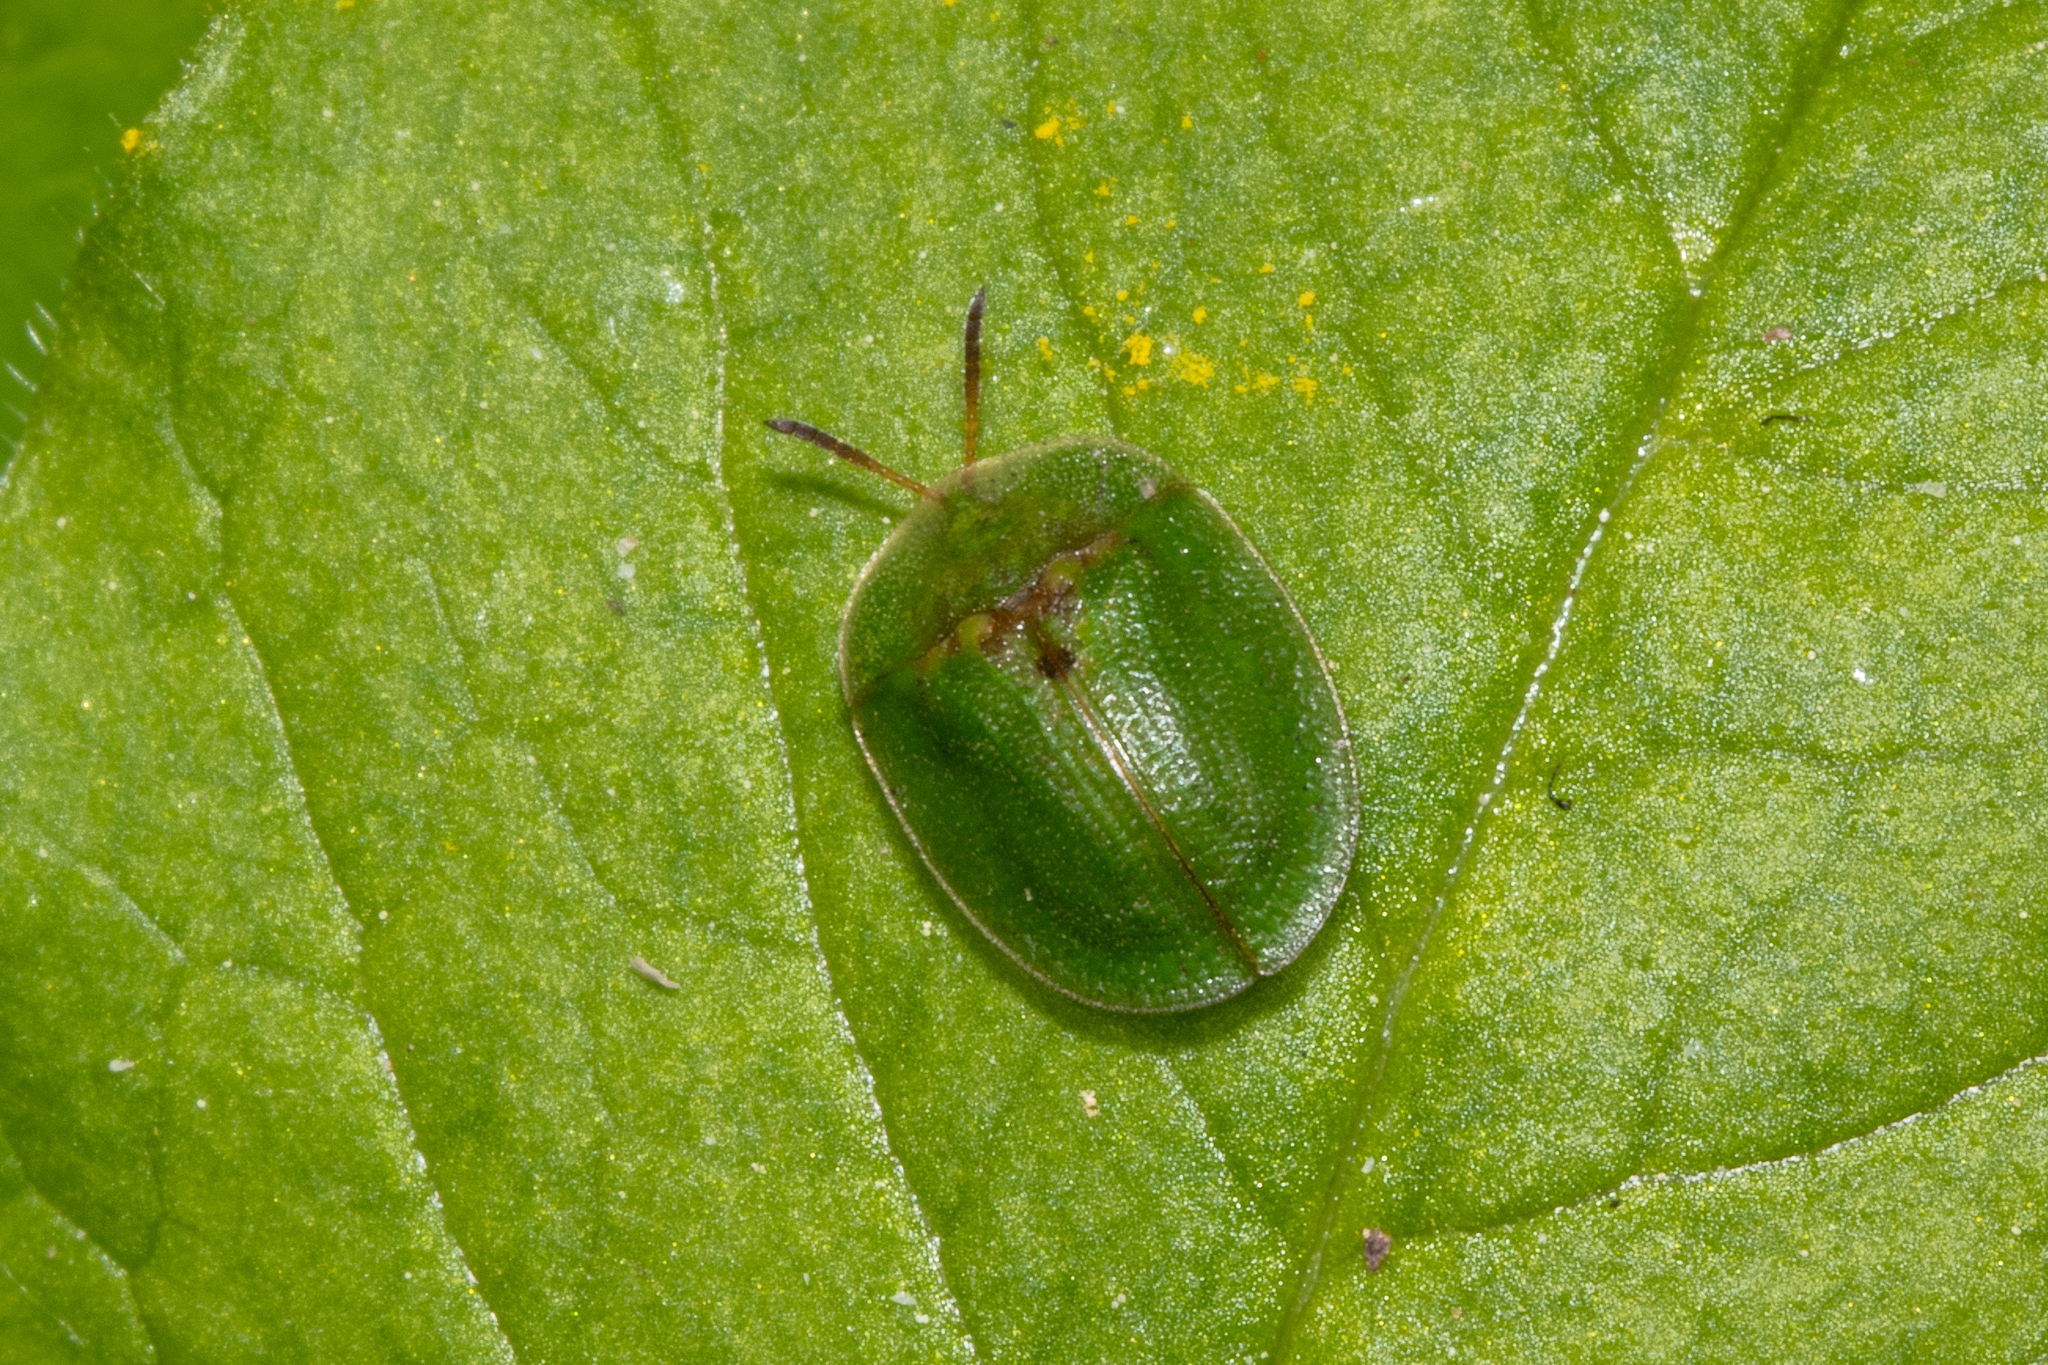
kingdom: Animalia
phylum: Arthropoda
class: Insecta
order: Coleoptera
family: Chrysomelidae
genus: Cassida
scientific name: Cassida rubiginosa
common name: Thistle tortoise beetle
